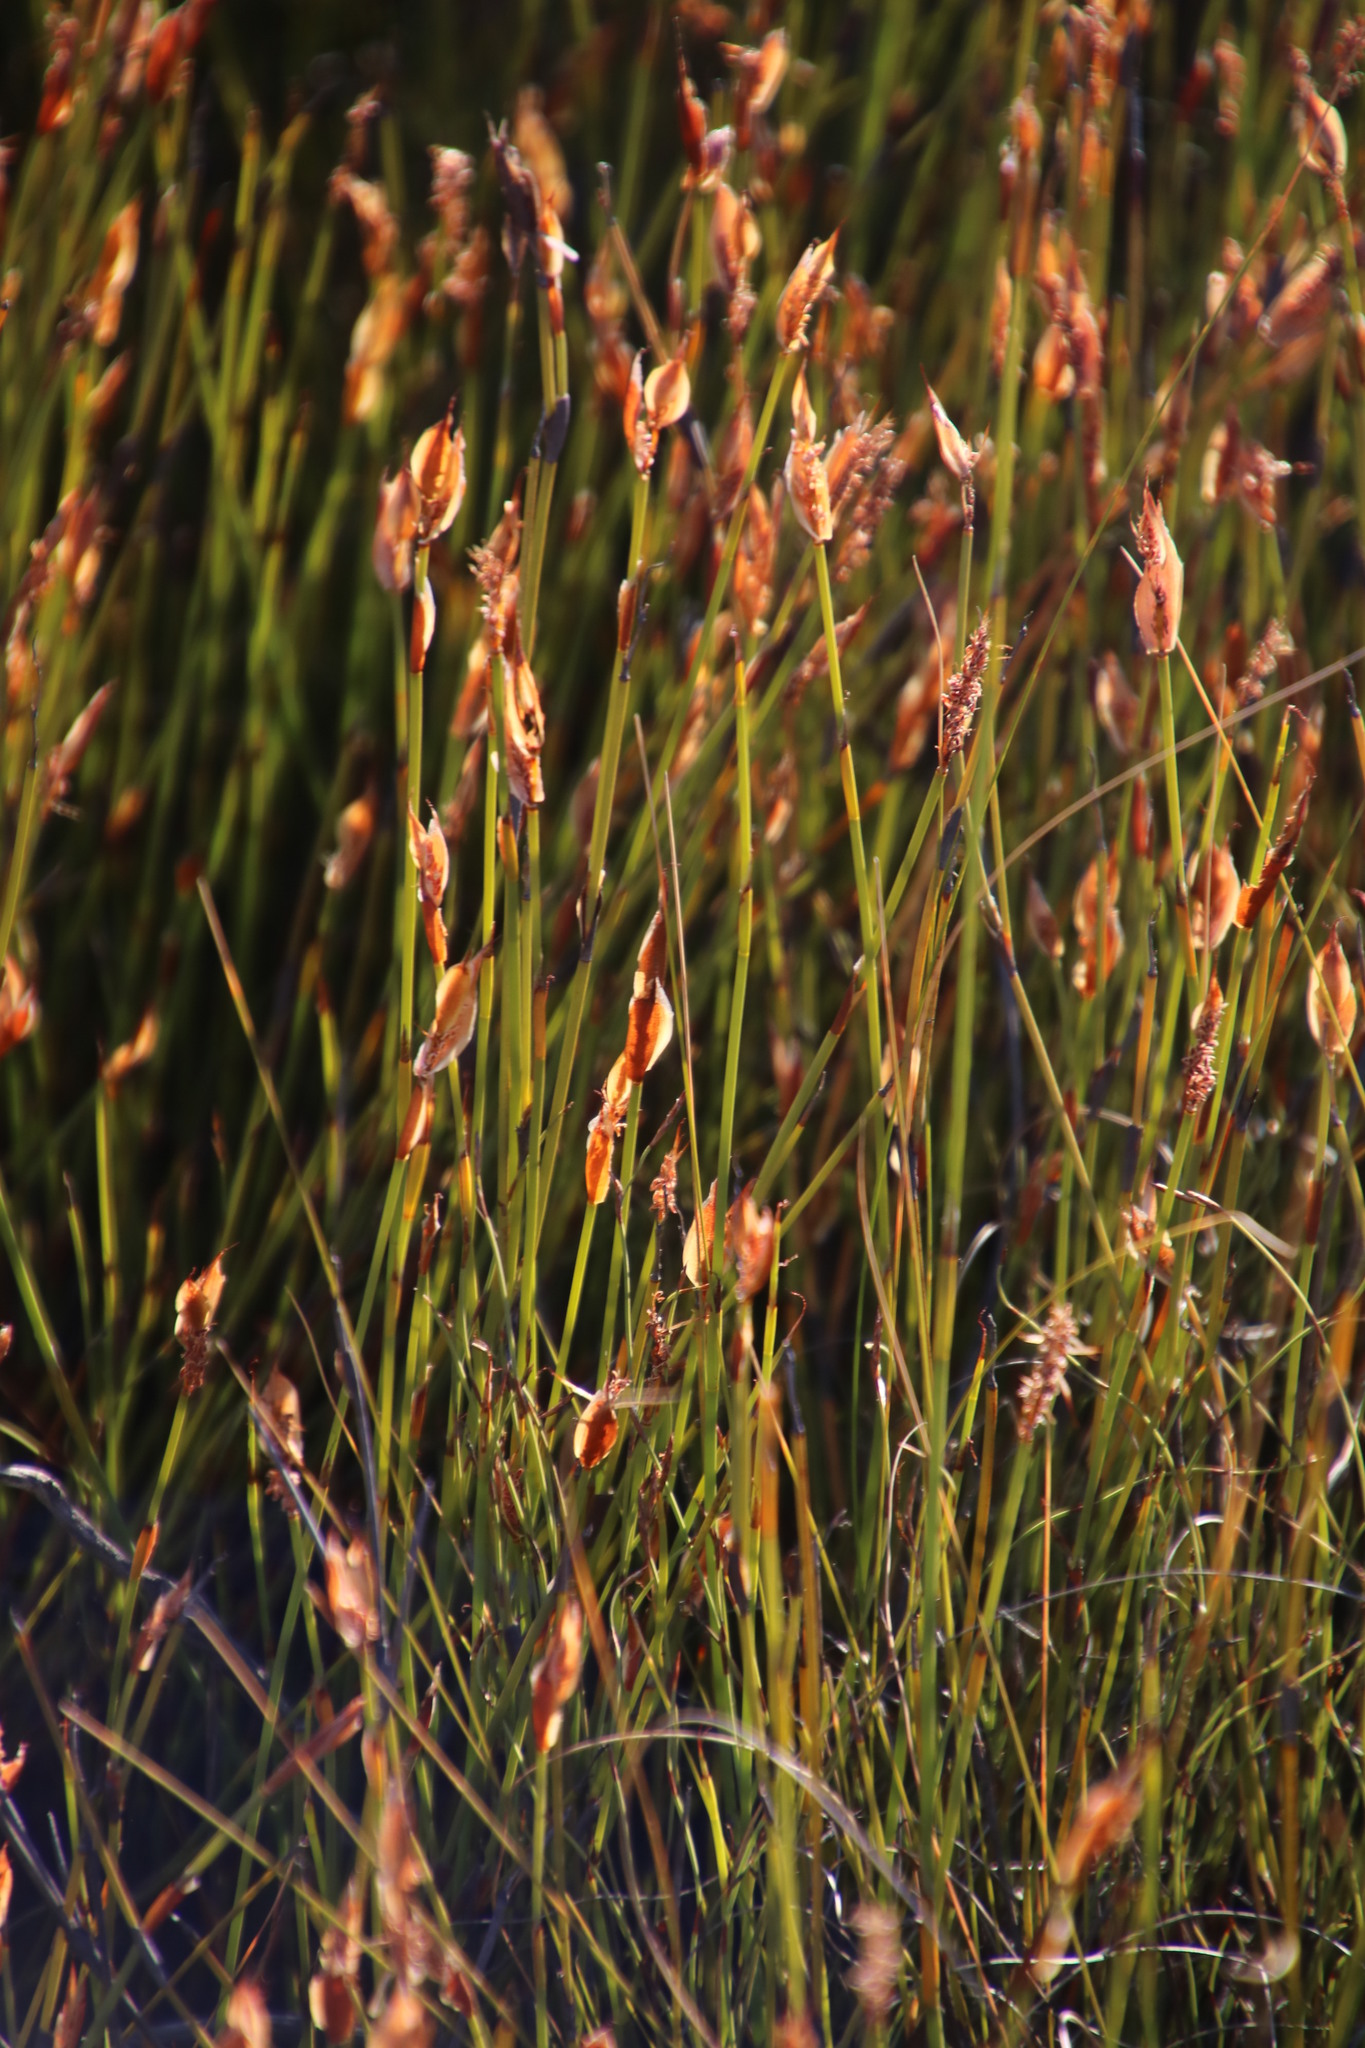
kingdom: Plantae
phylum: Tracheophyta
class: Liliopsida
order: Poales
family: Restionaceae
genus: Willdenowia
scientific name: Willdenowia glomerata
